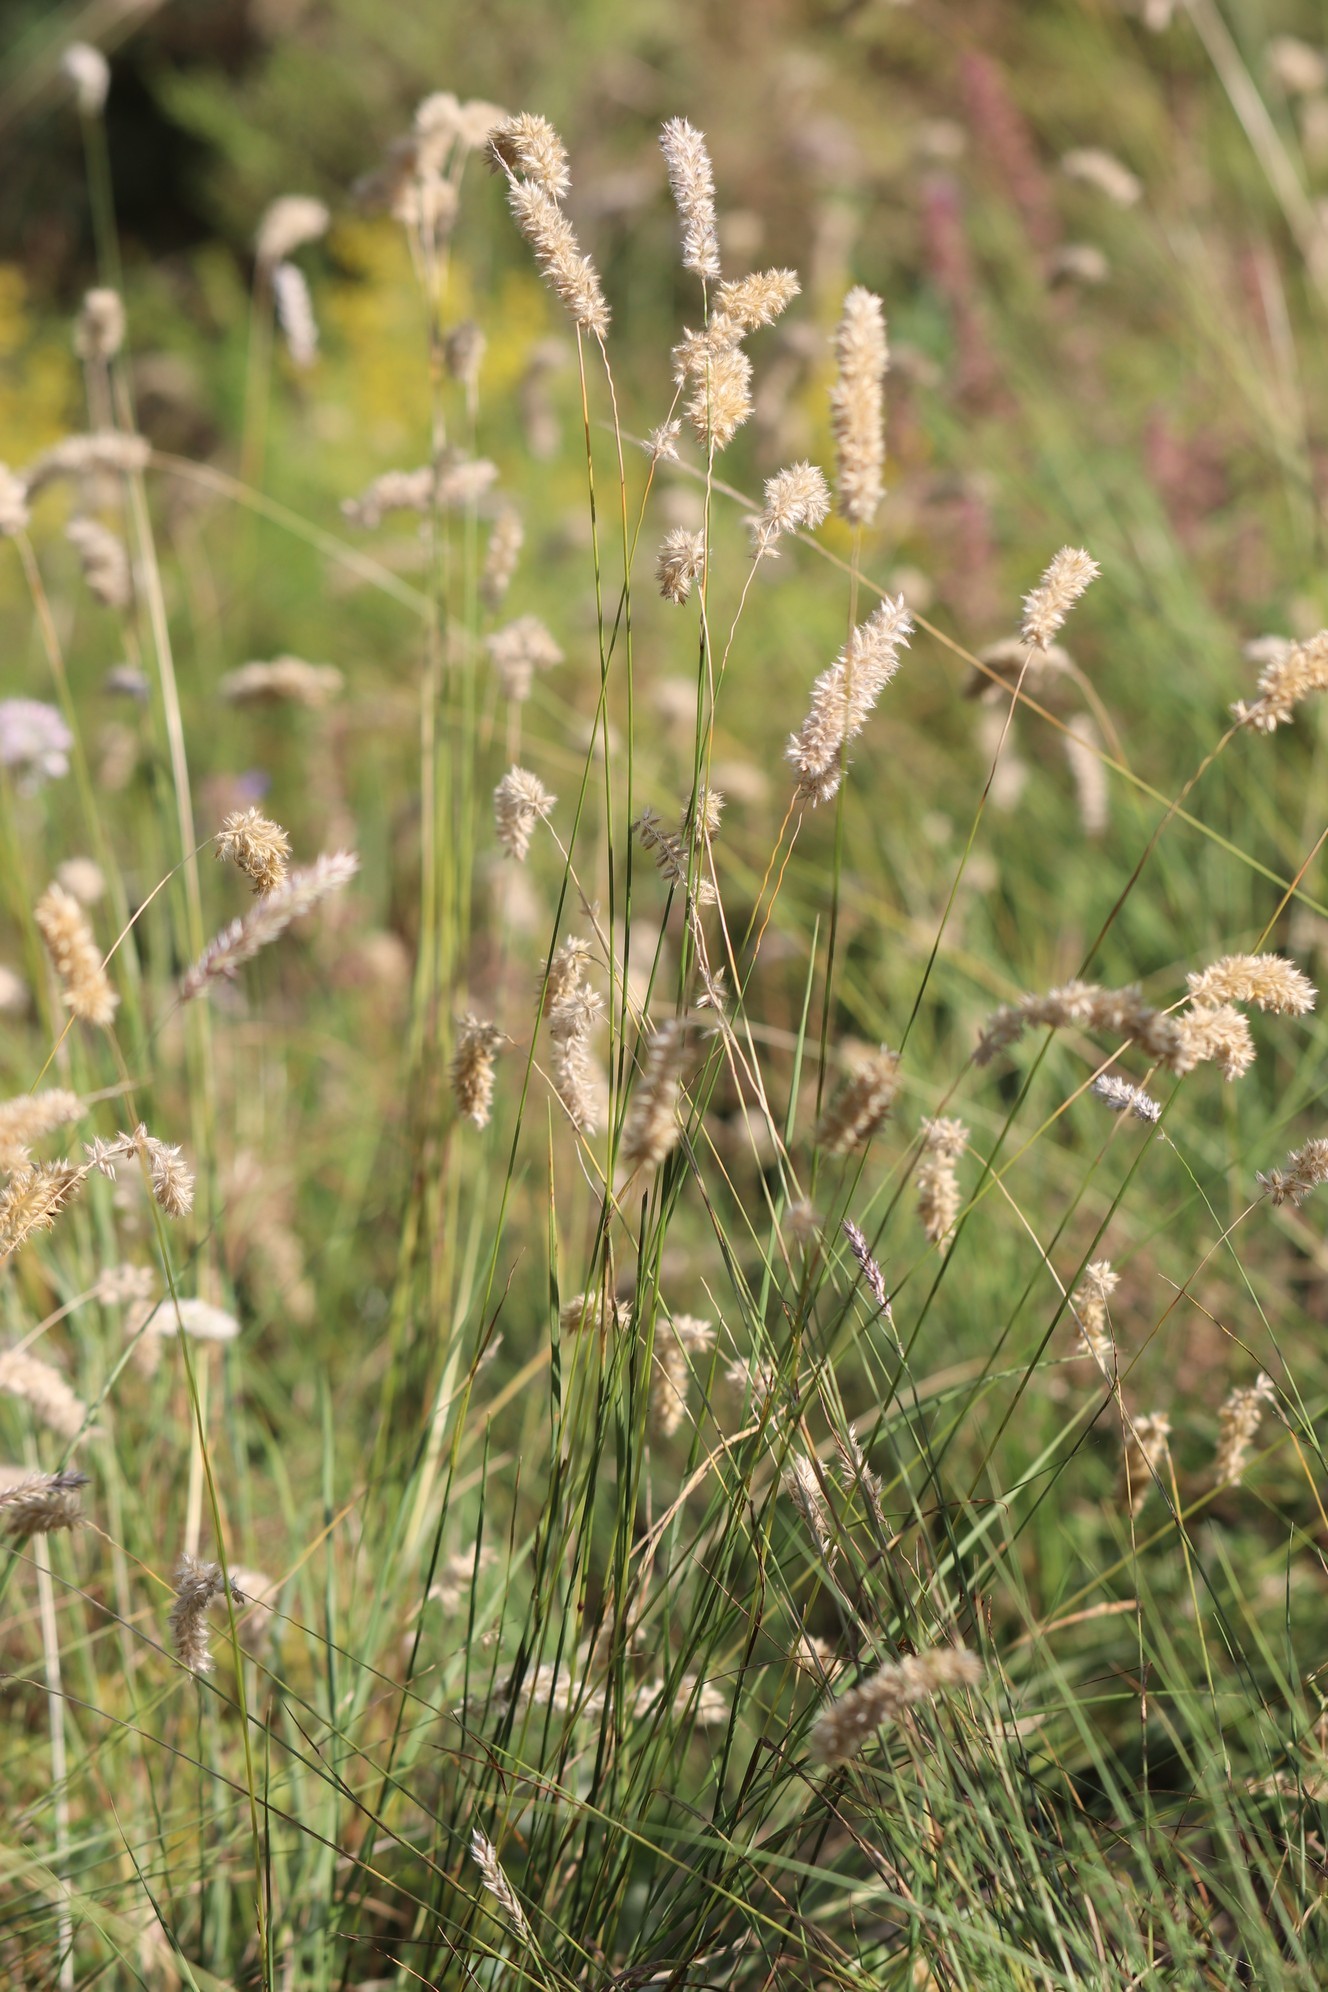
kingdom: Plantae
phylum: Tracheophyta
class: Liliopsida
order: Poales
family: Poaceae
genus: Melica
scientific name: Melica transsilvanica
